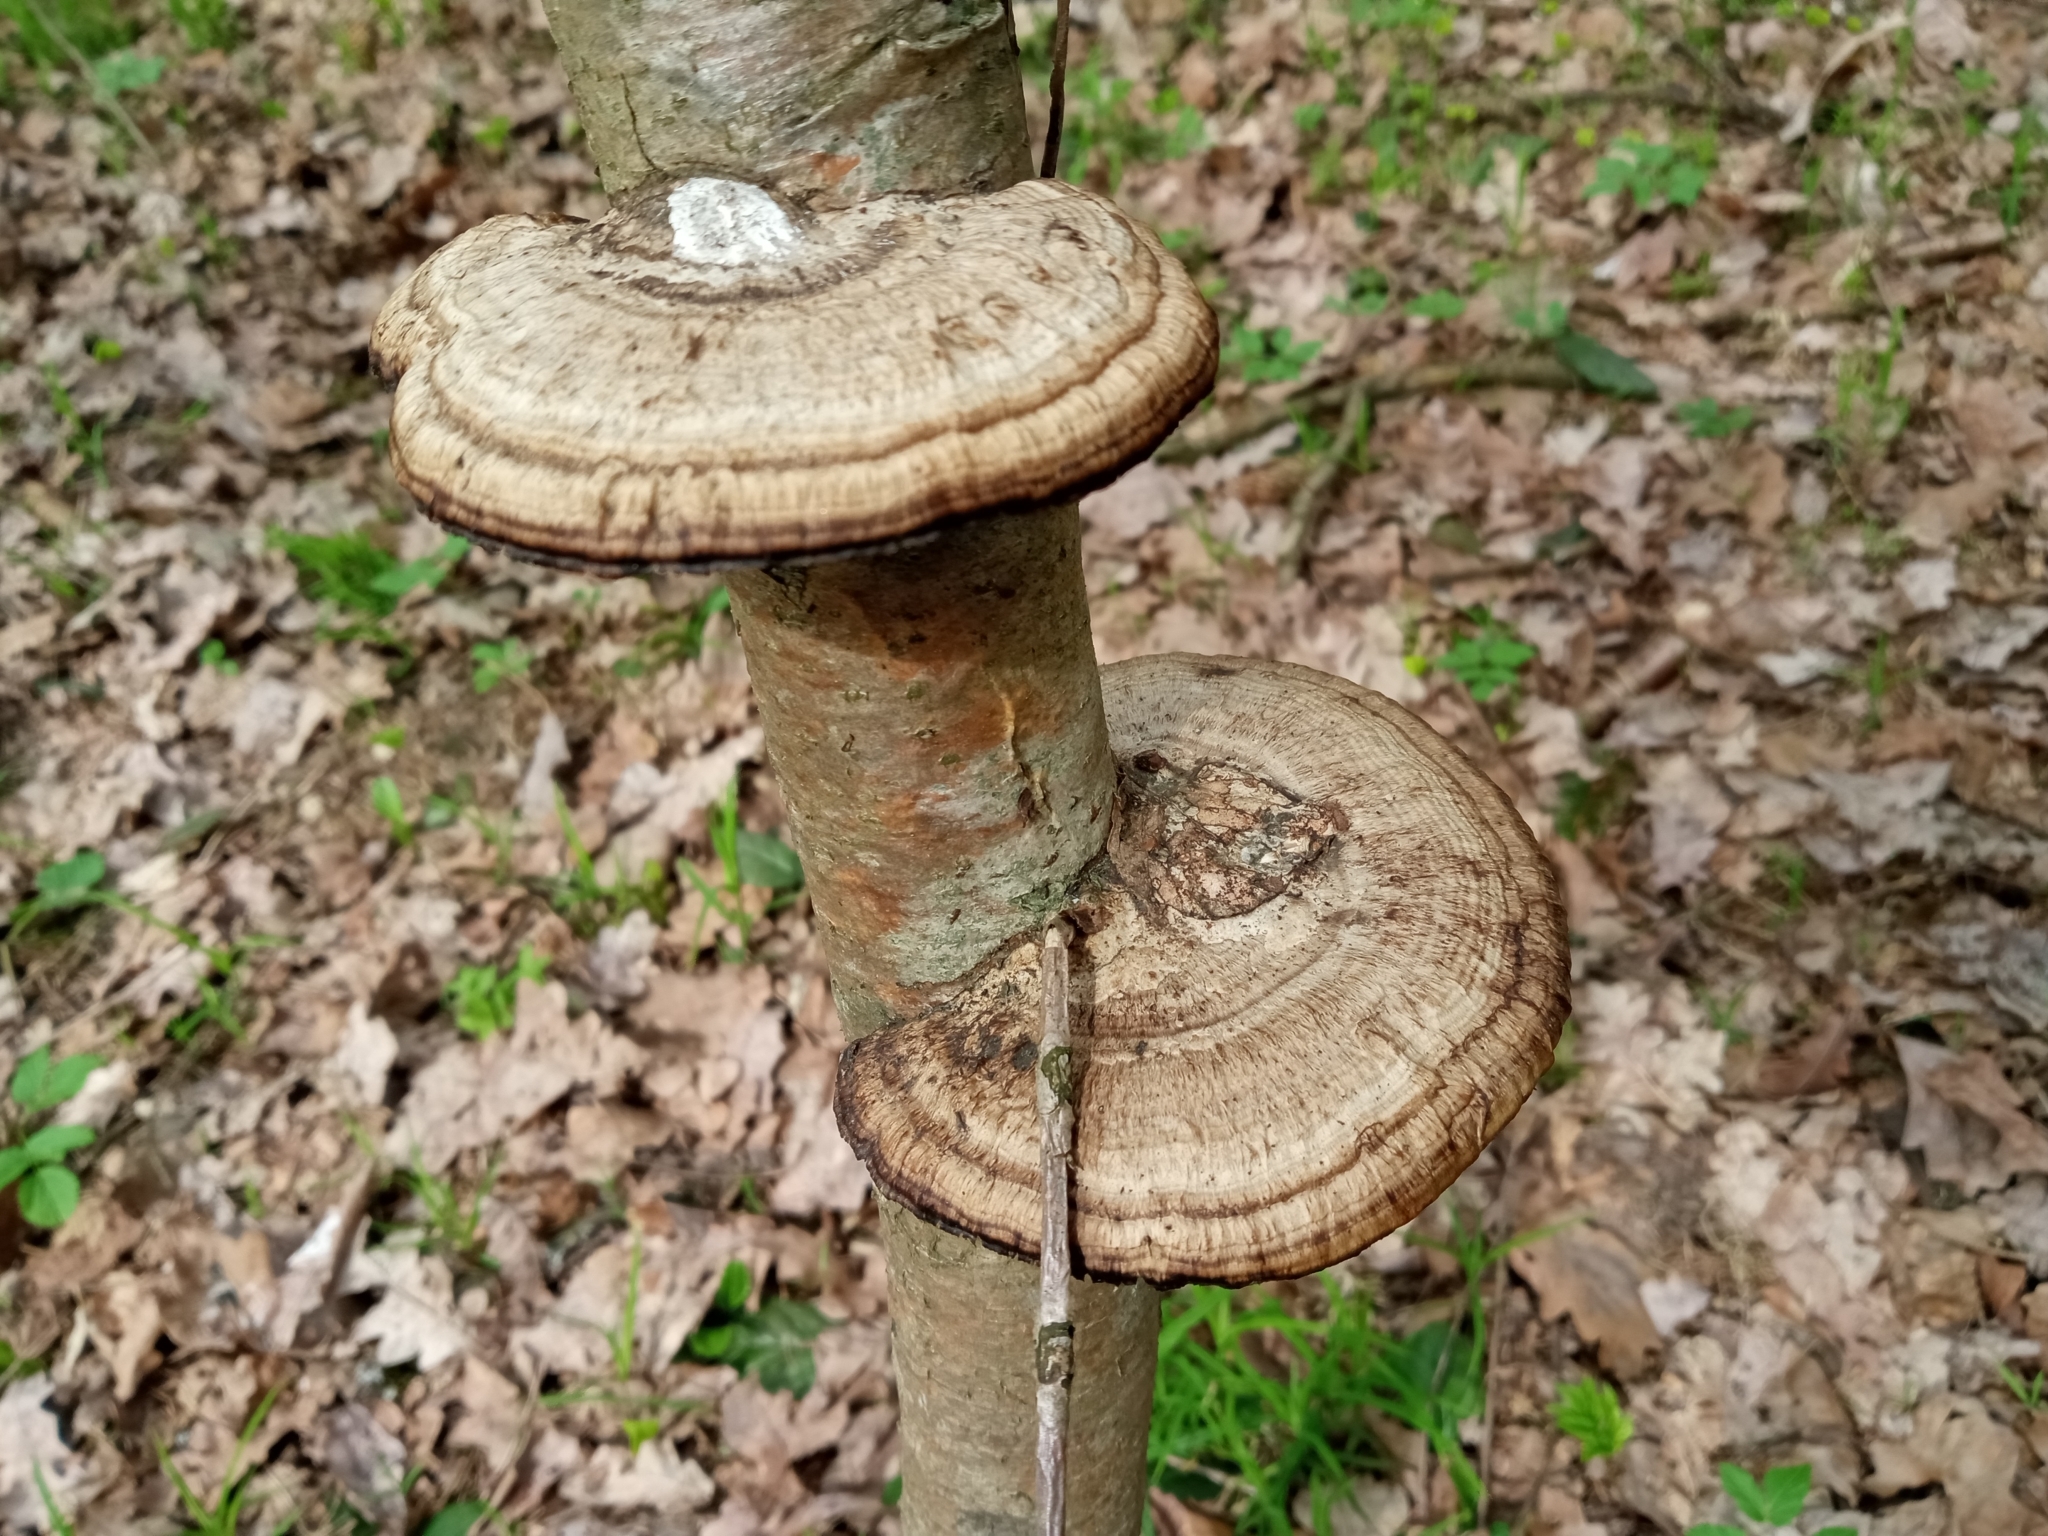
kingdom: Fungi
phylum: Basidiomycota
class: Agaricomycetes
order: Polyporales
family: Polyporaceae
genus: Daedaleopsis
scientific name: Daedaleopsis confragosa
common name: Blushing bracket
